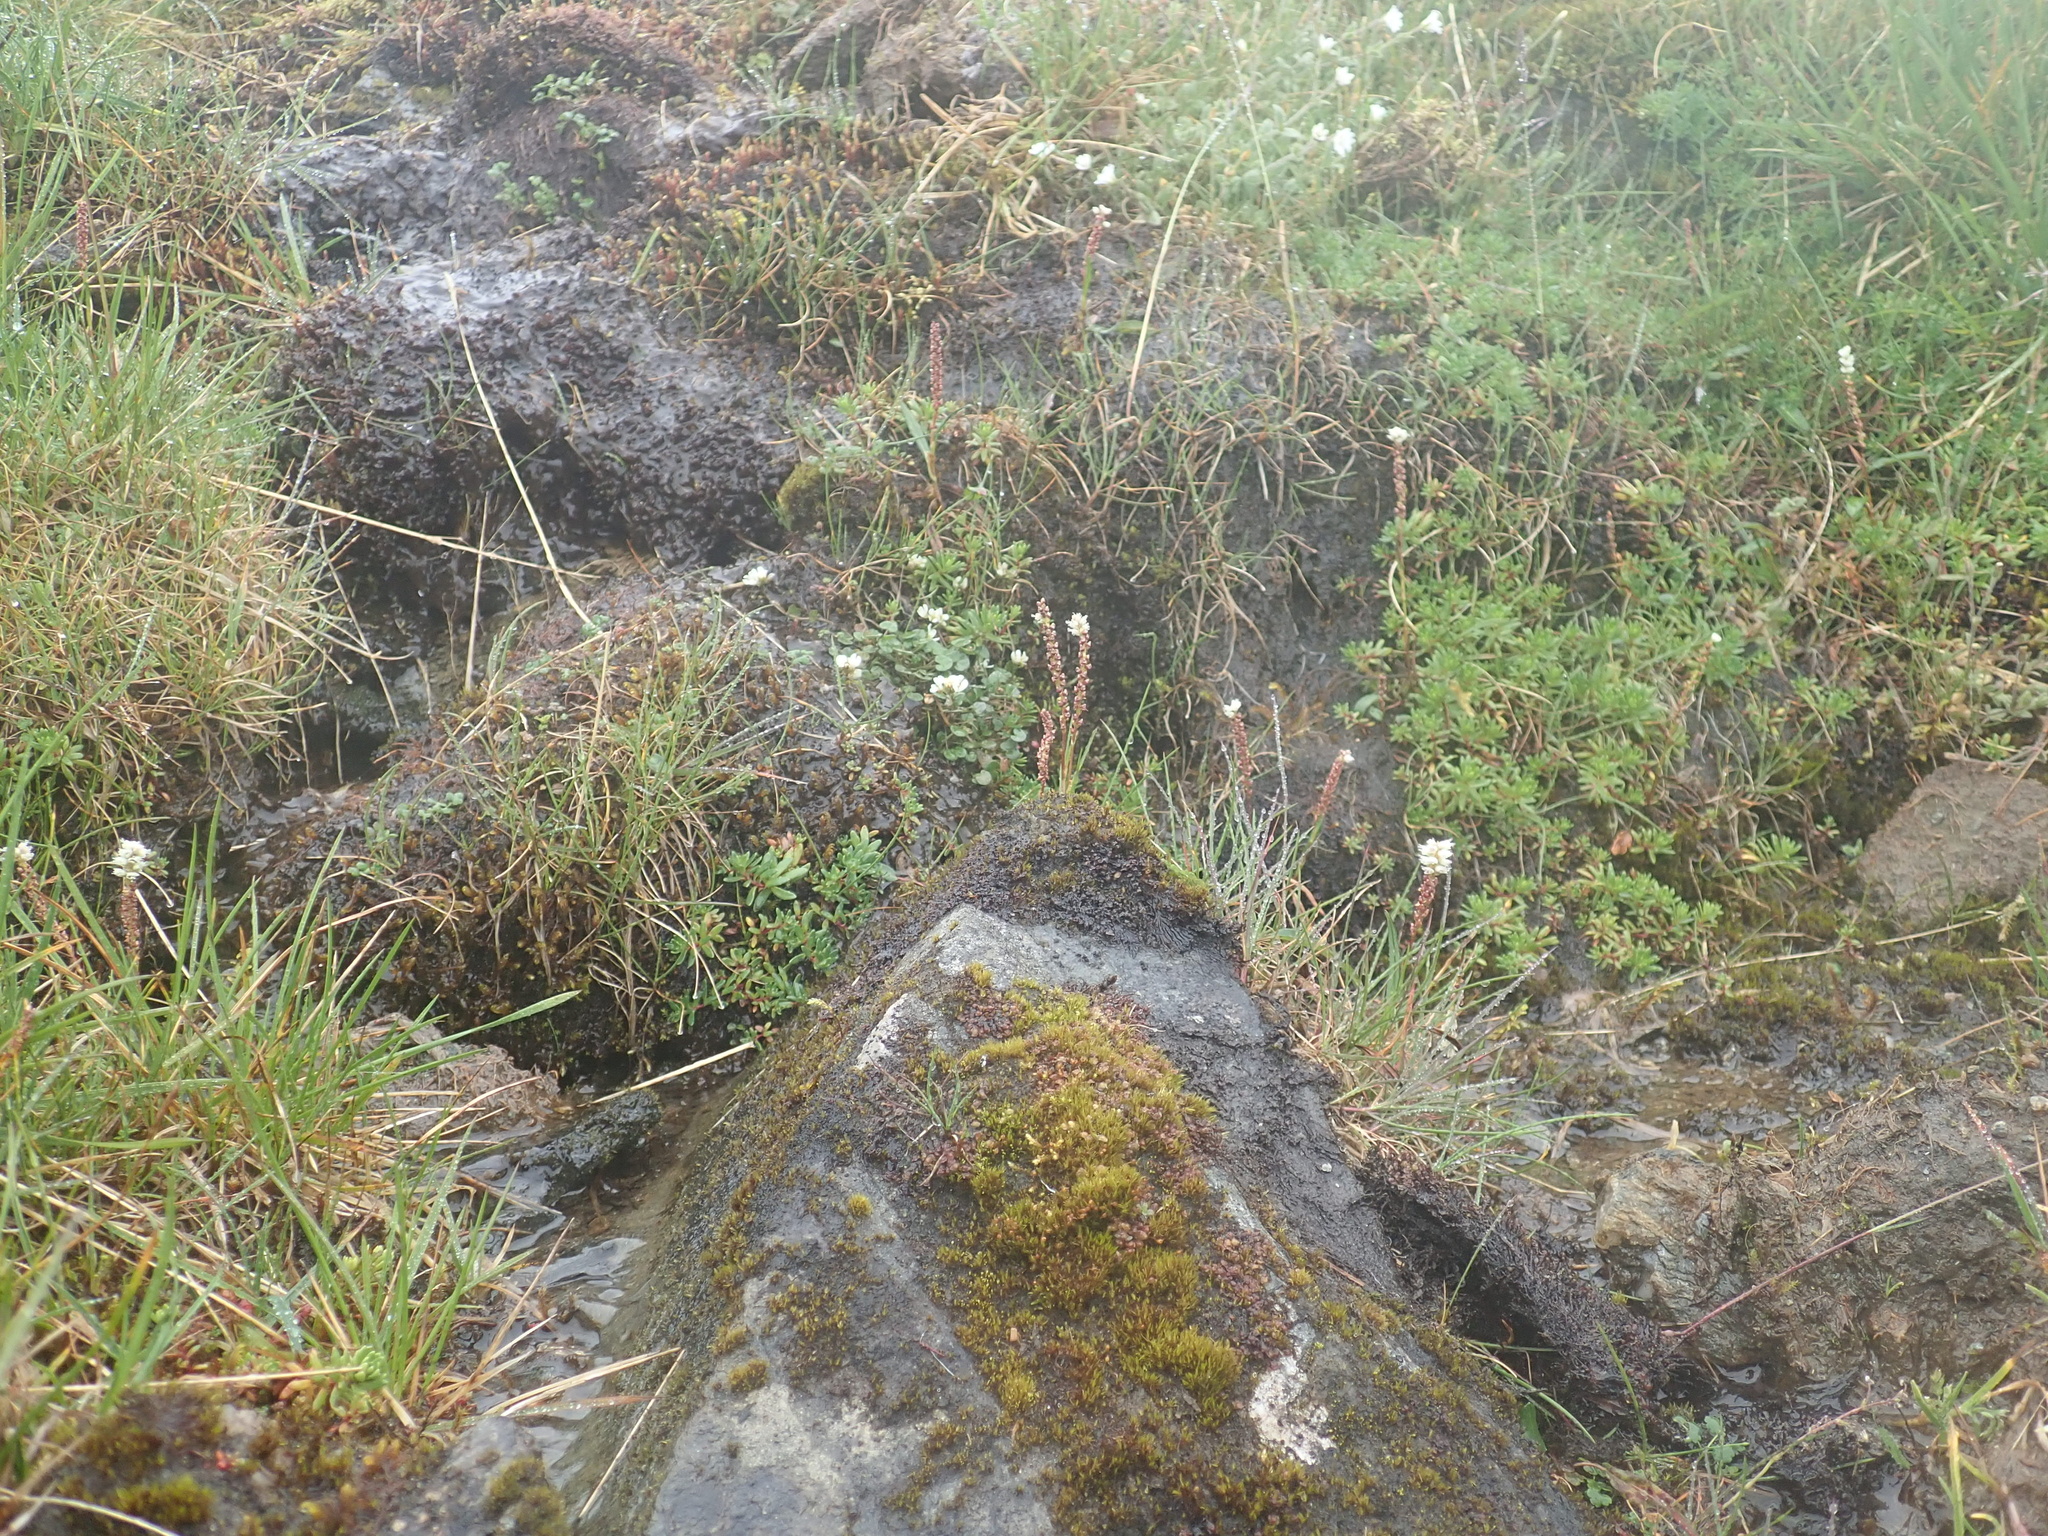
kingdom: Plantae
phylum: Tracheophyta
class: Magnoliopsida
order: Caryophyllales
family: Polygonaceae
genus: Bistorta
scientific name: Bistorta vivipara
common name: Alpine bistort
